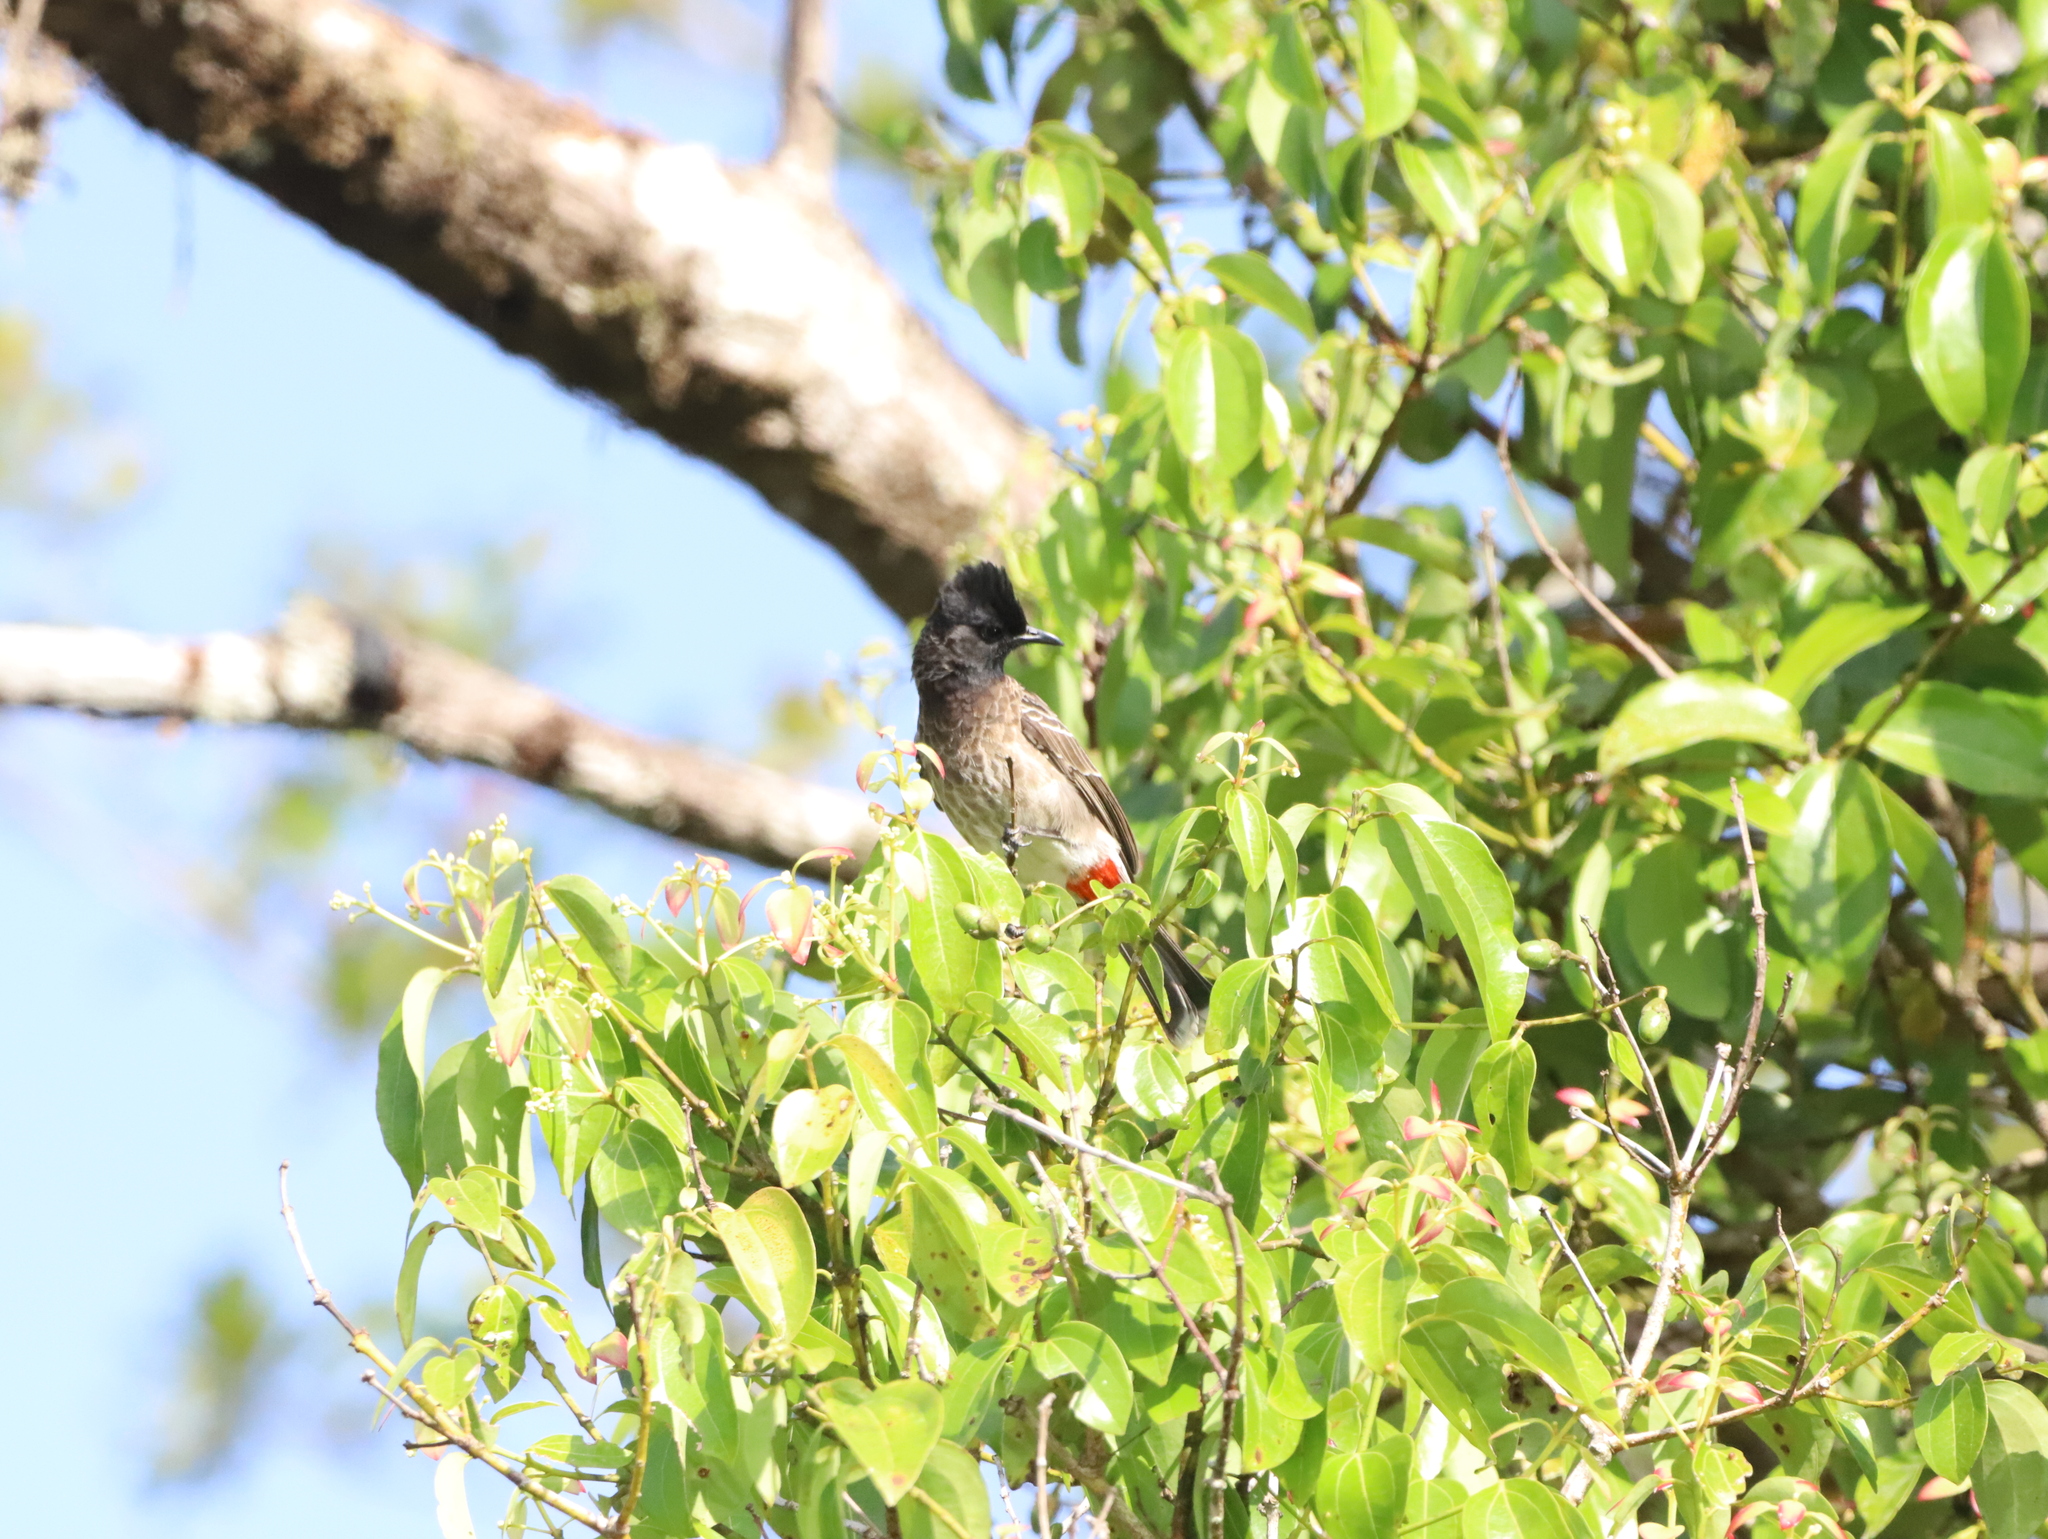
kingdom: Animalia
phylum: Chordata
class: Aves
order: Passeriformes
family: Pycnonotidae
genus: Pycnonotus
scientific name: Pycnonotus cafer
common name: Red-vented bulbul
